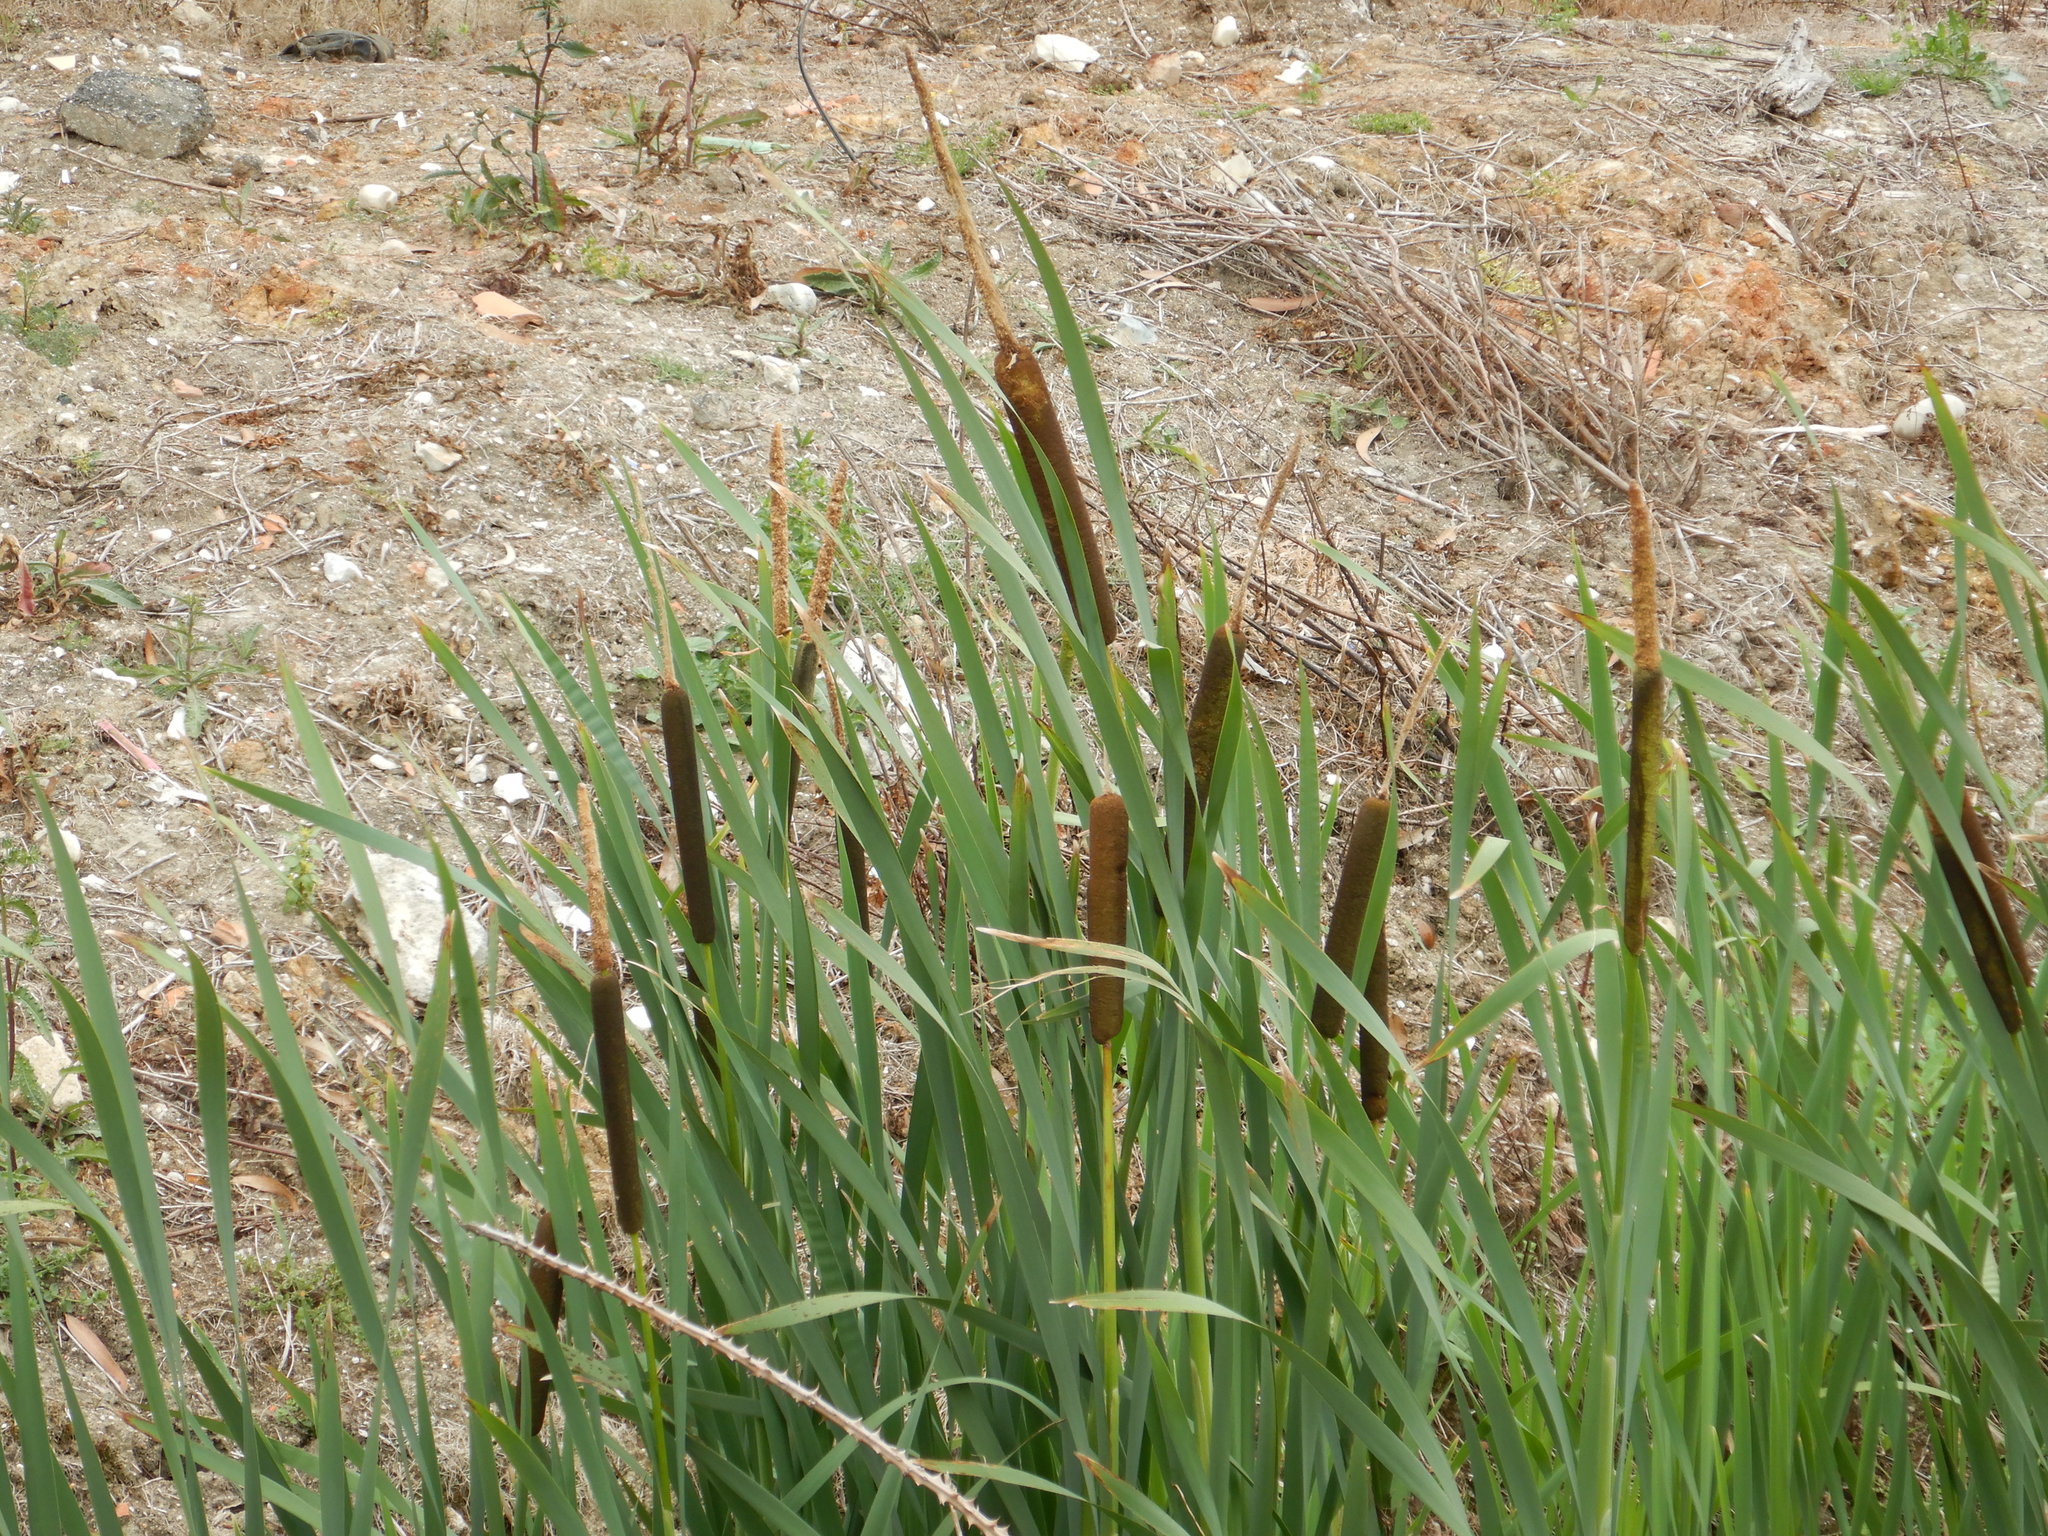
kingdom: Plantae
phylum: Tracheophyta
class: Liliopsida
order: Poales
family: Typhaceae
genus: Typha
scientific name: Typha latifolia
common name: Broadleaf cattail
